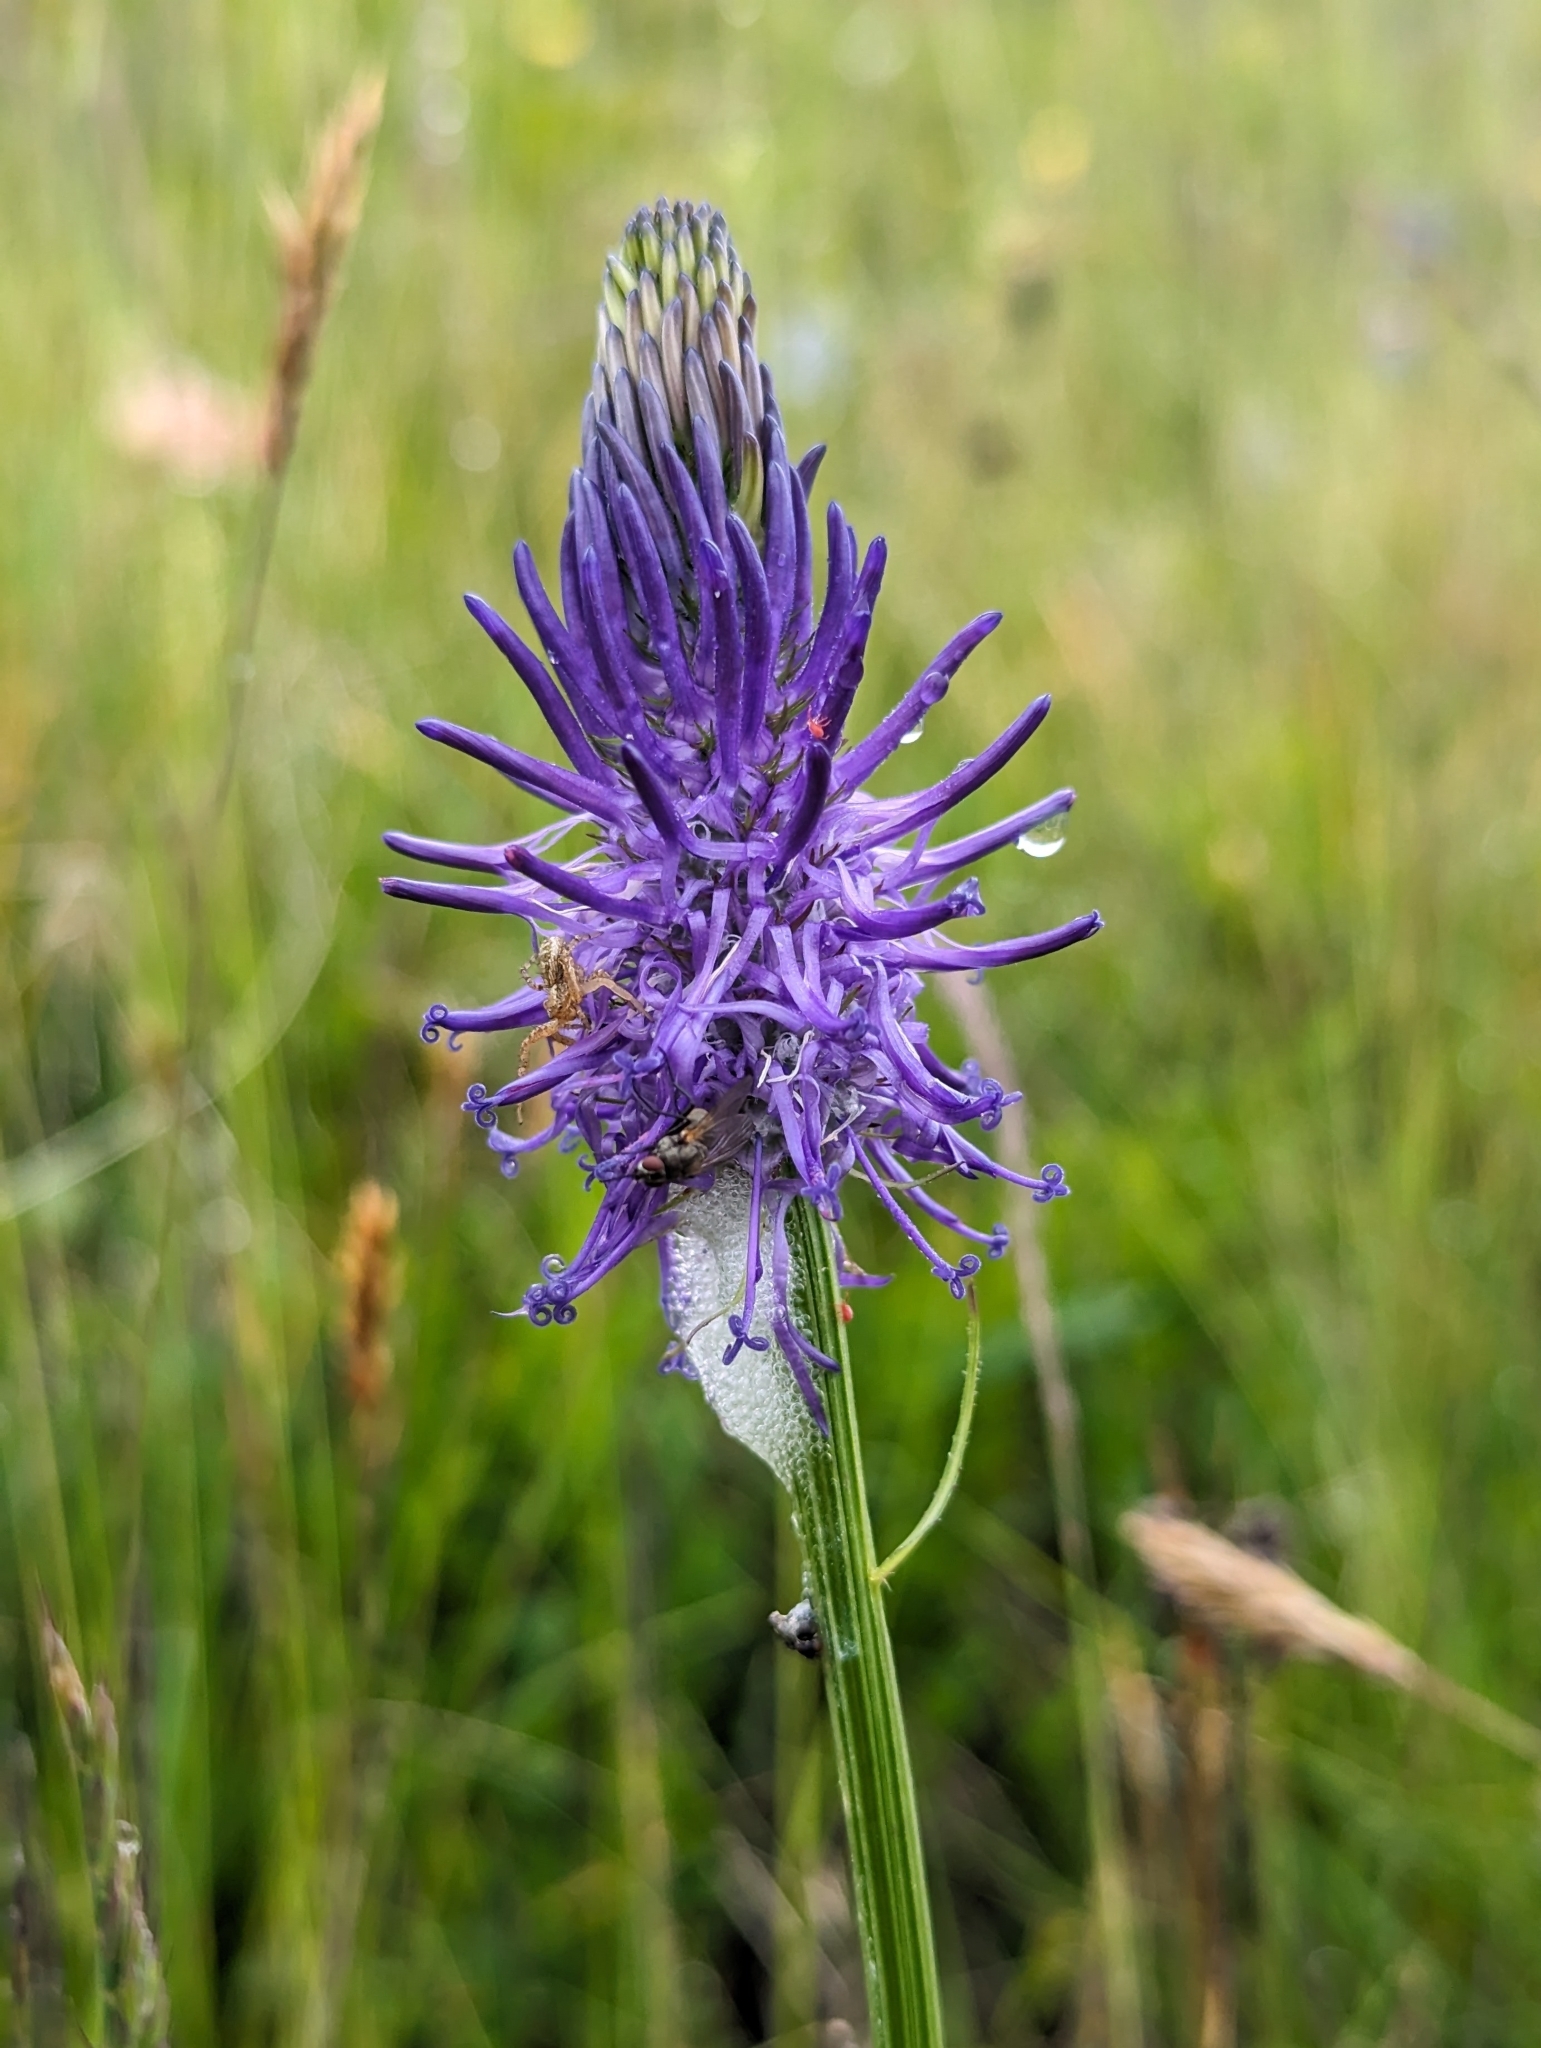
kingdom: Plantae
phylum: Tracheophyta
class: Magnoliopsida
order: Asterales
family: Campanulaceae
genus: Phyteuma
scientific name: Phyteuma betonicifolium
